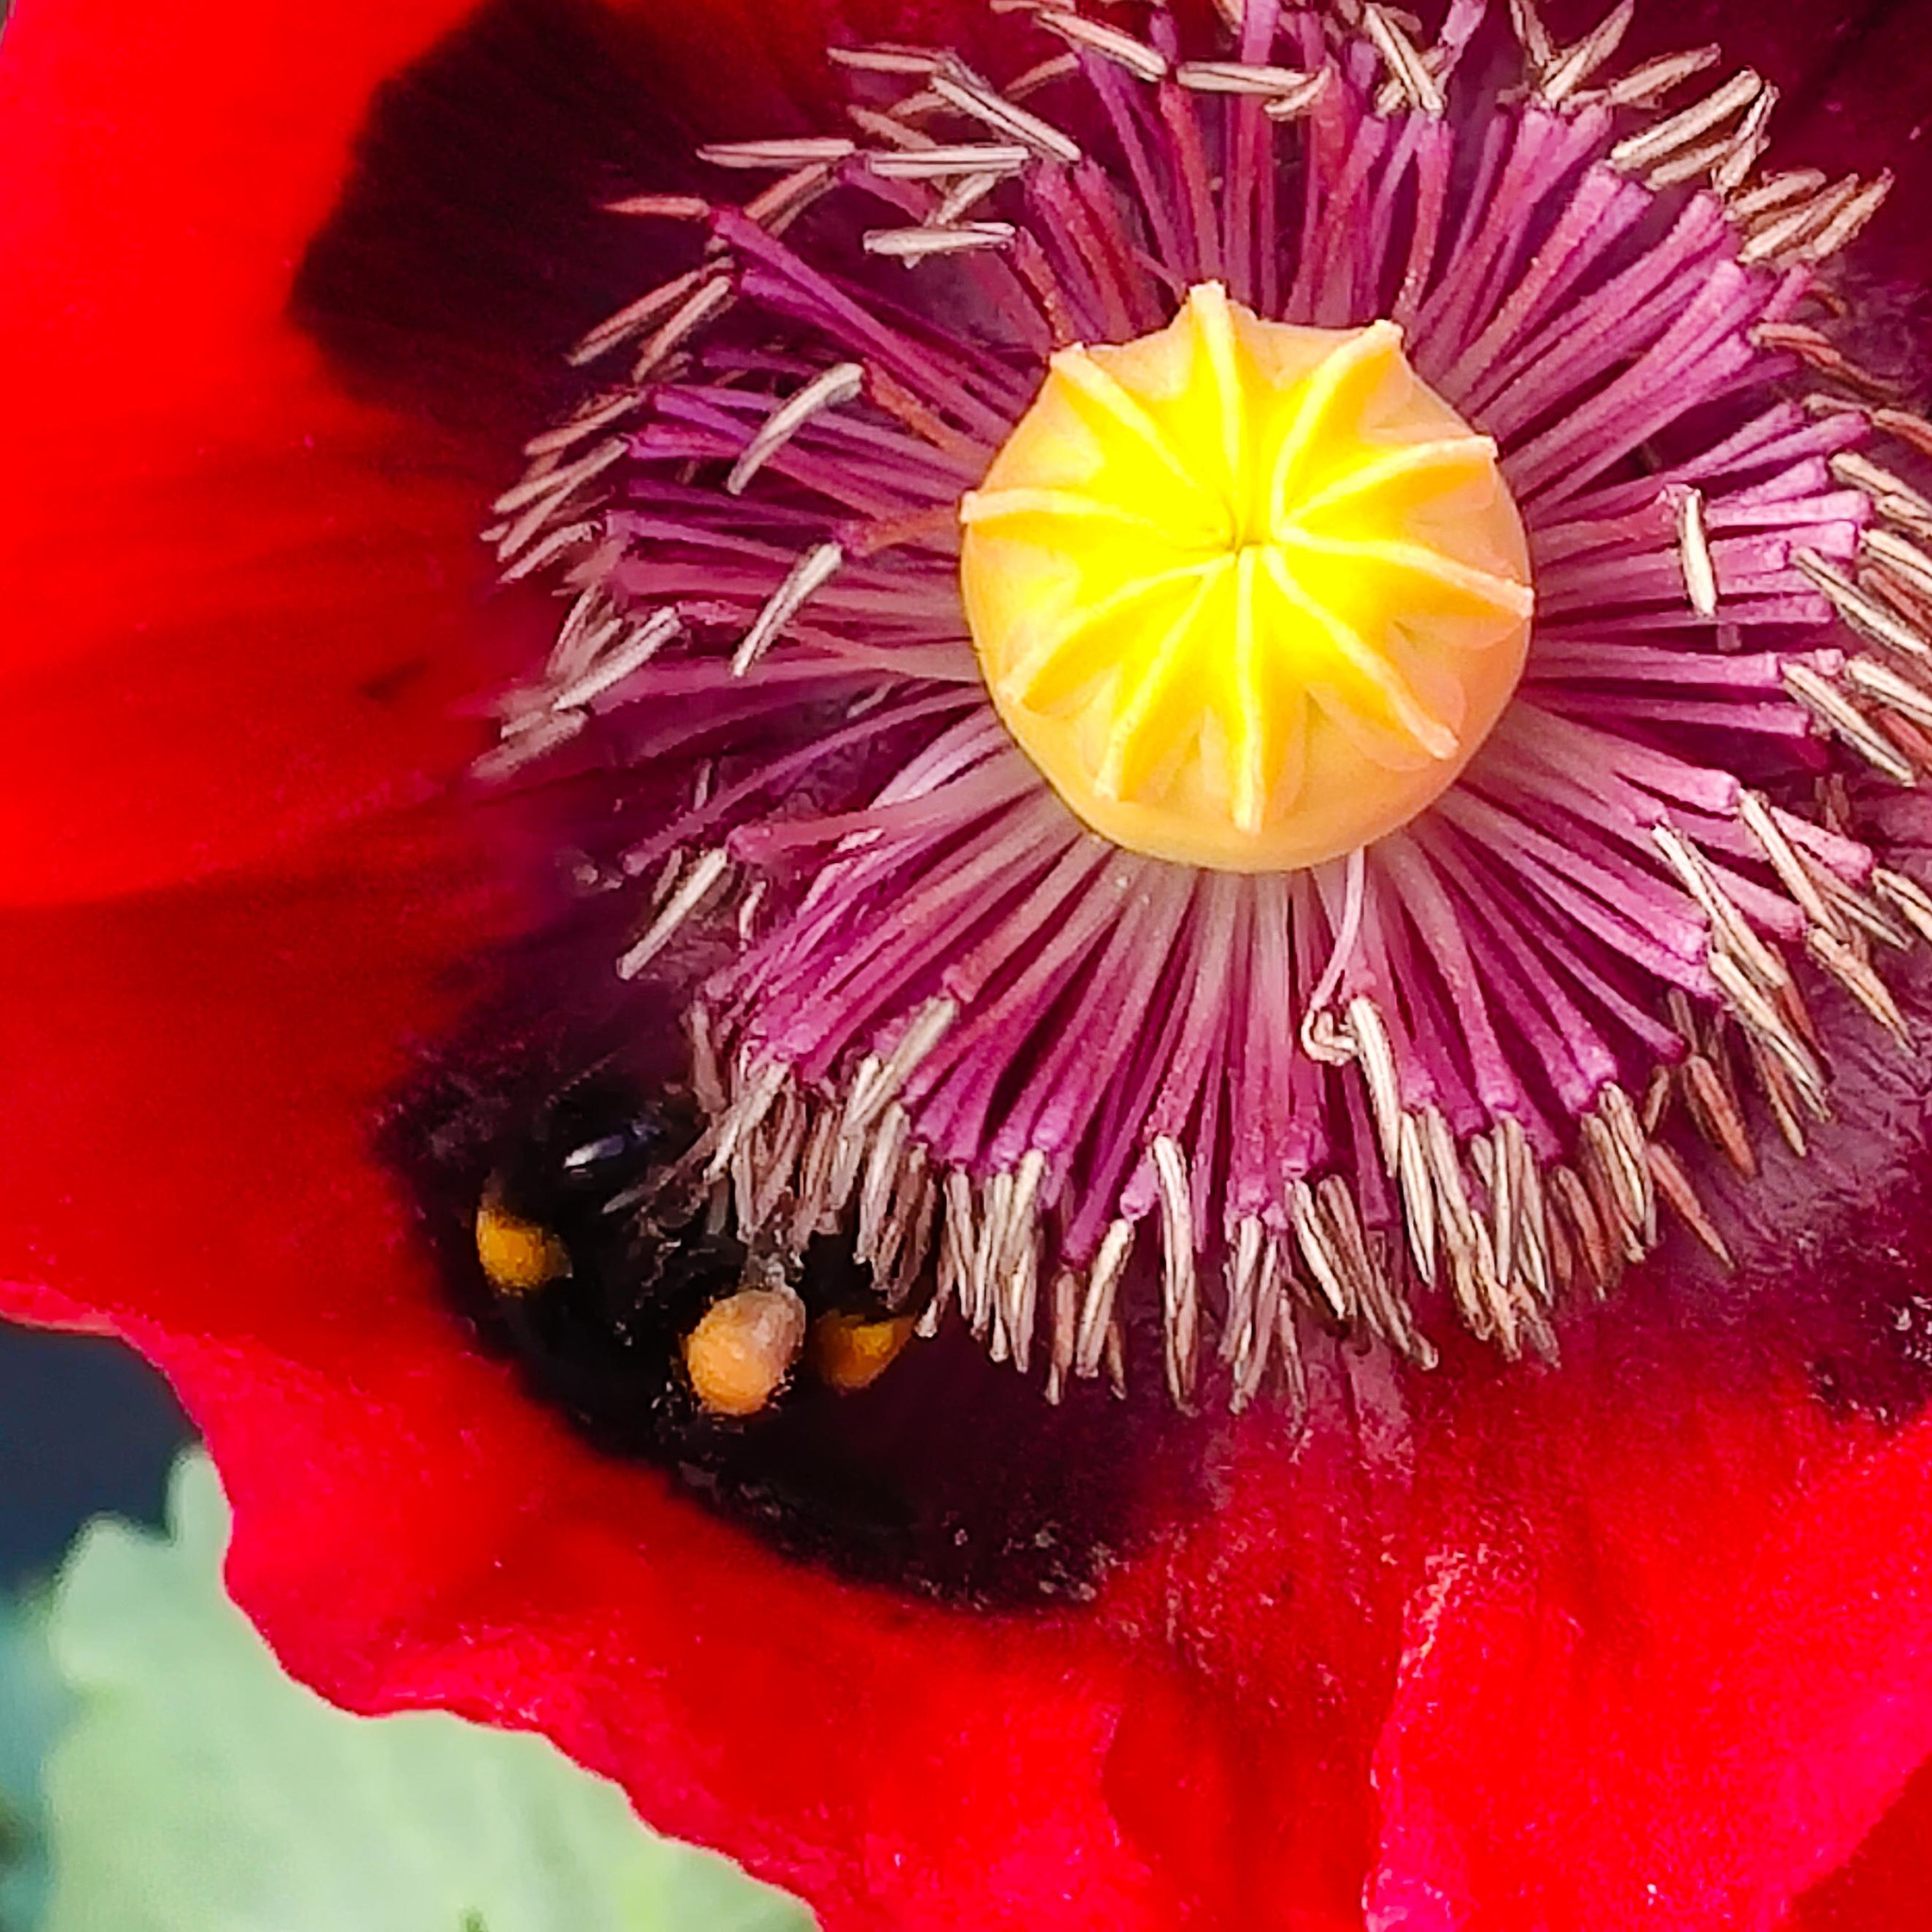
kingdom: Plantae
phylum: Tracheophyta
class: Magnoliopsida
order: Ranunculales
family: Papaveraceae
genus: Papaver
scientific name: Papaver somniferum
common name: Opium poppy
